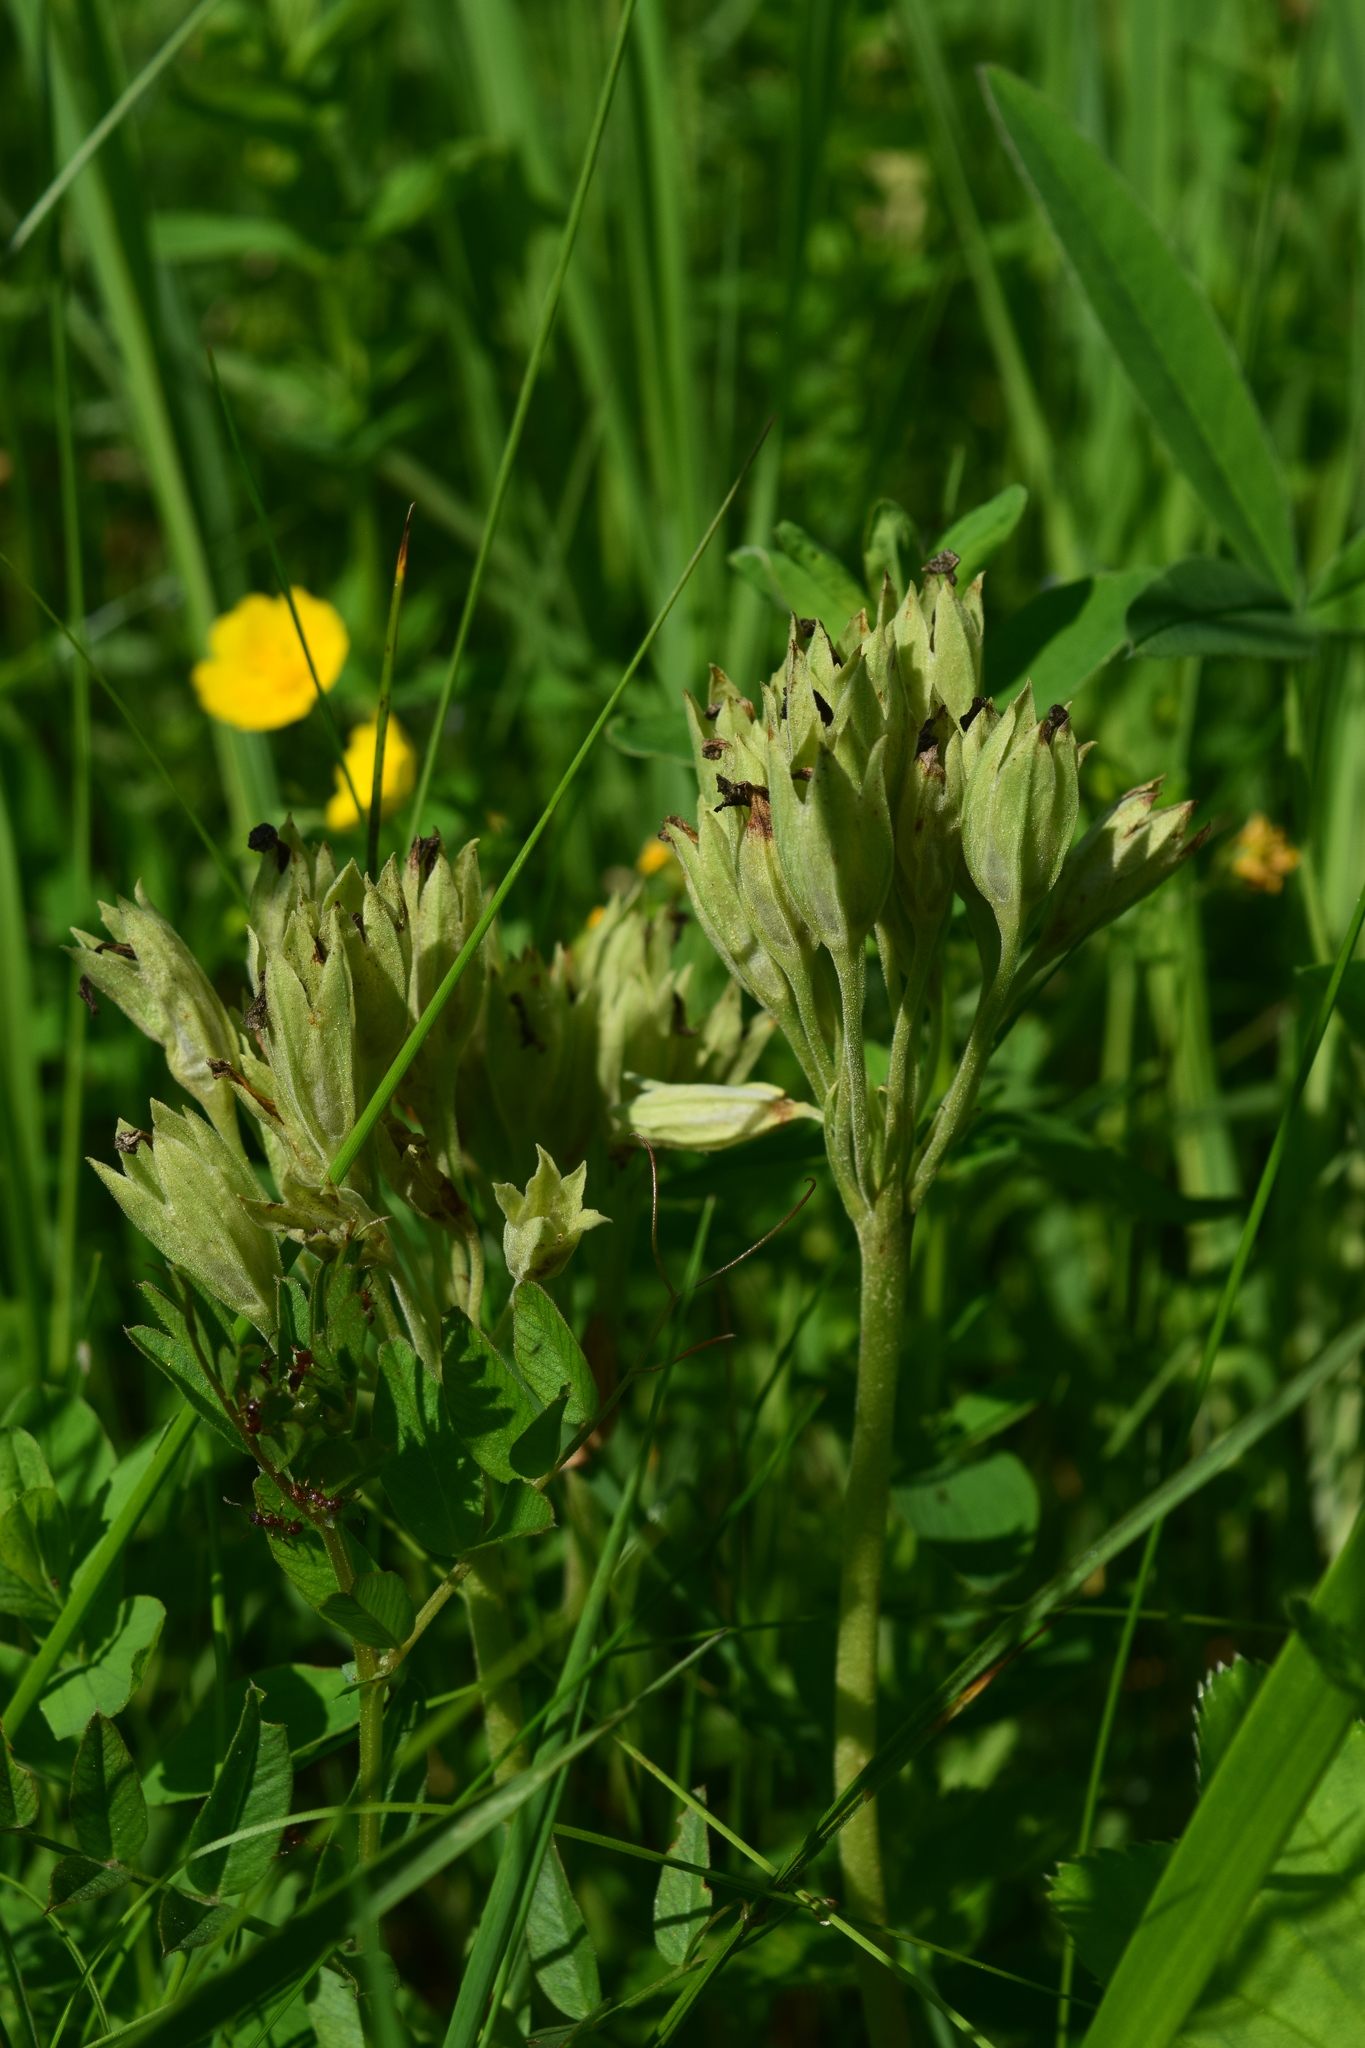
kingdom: Plantae
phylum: Tracheophyta
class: Magnoliopsida
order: Ericales
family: Primulaceae
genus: Primula
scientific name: Primula veris
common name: Cowslip
